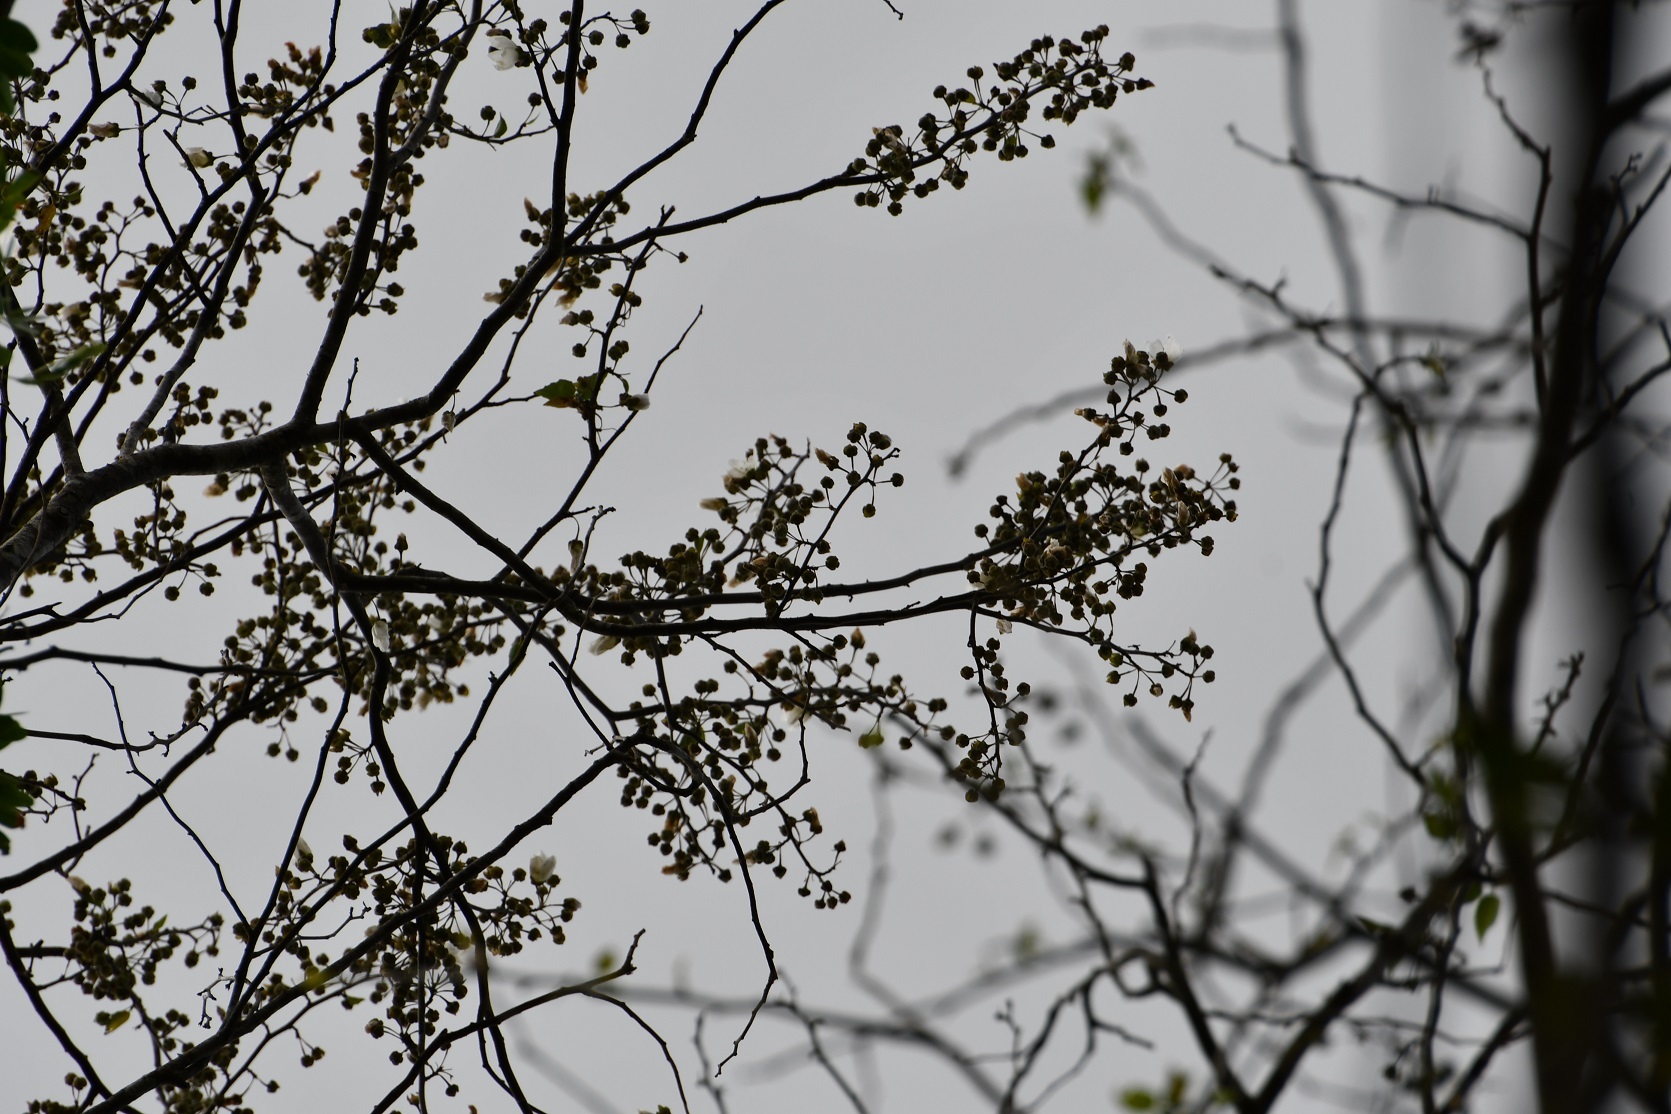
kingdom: Plantae
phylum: Tracheophyta
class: Magnoliopsida
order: Malvales
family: Malvaceae
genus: Robinsonella
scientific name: Robinsonella glabrifolia
